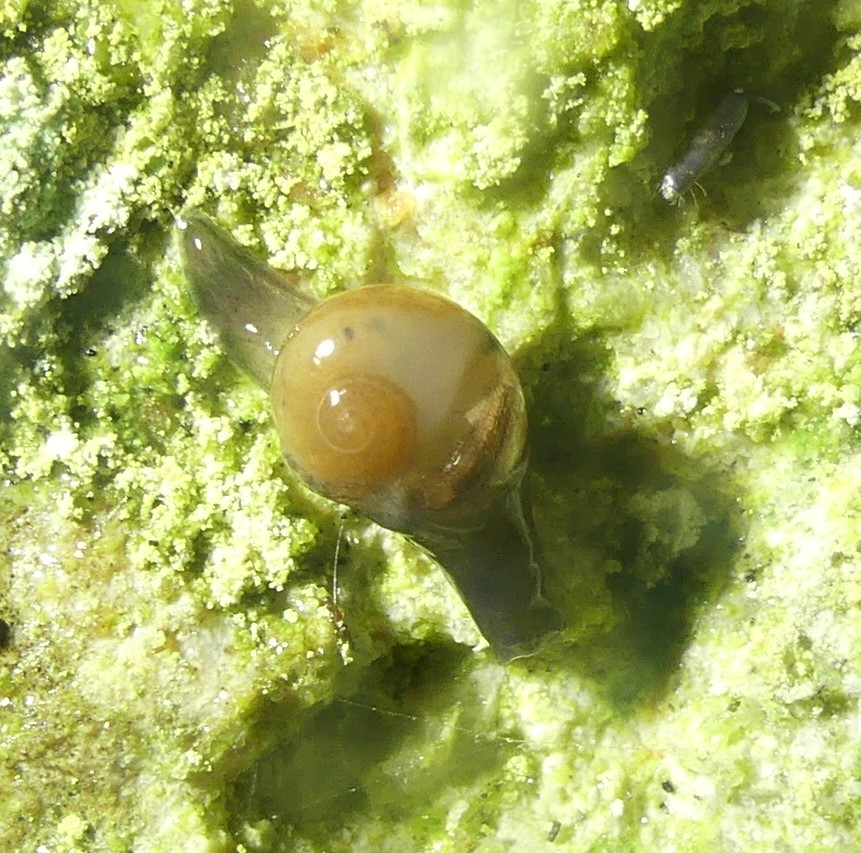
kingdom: Animalia
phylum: Mollusca
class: Gastropoda
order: Stylommatophora
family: Vitrinidae
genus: Vitrina
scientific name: Vitrina pellucida
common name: Pellucid glass snail
